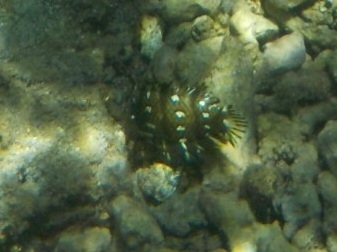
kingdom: Animalia
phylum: Chordata
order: Perciformes
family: Labridae
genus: Novaculichthys
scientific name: Novaculichthys taeniourus
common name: Rockmover wrasse
